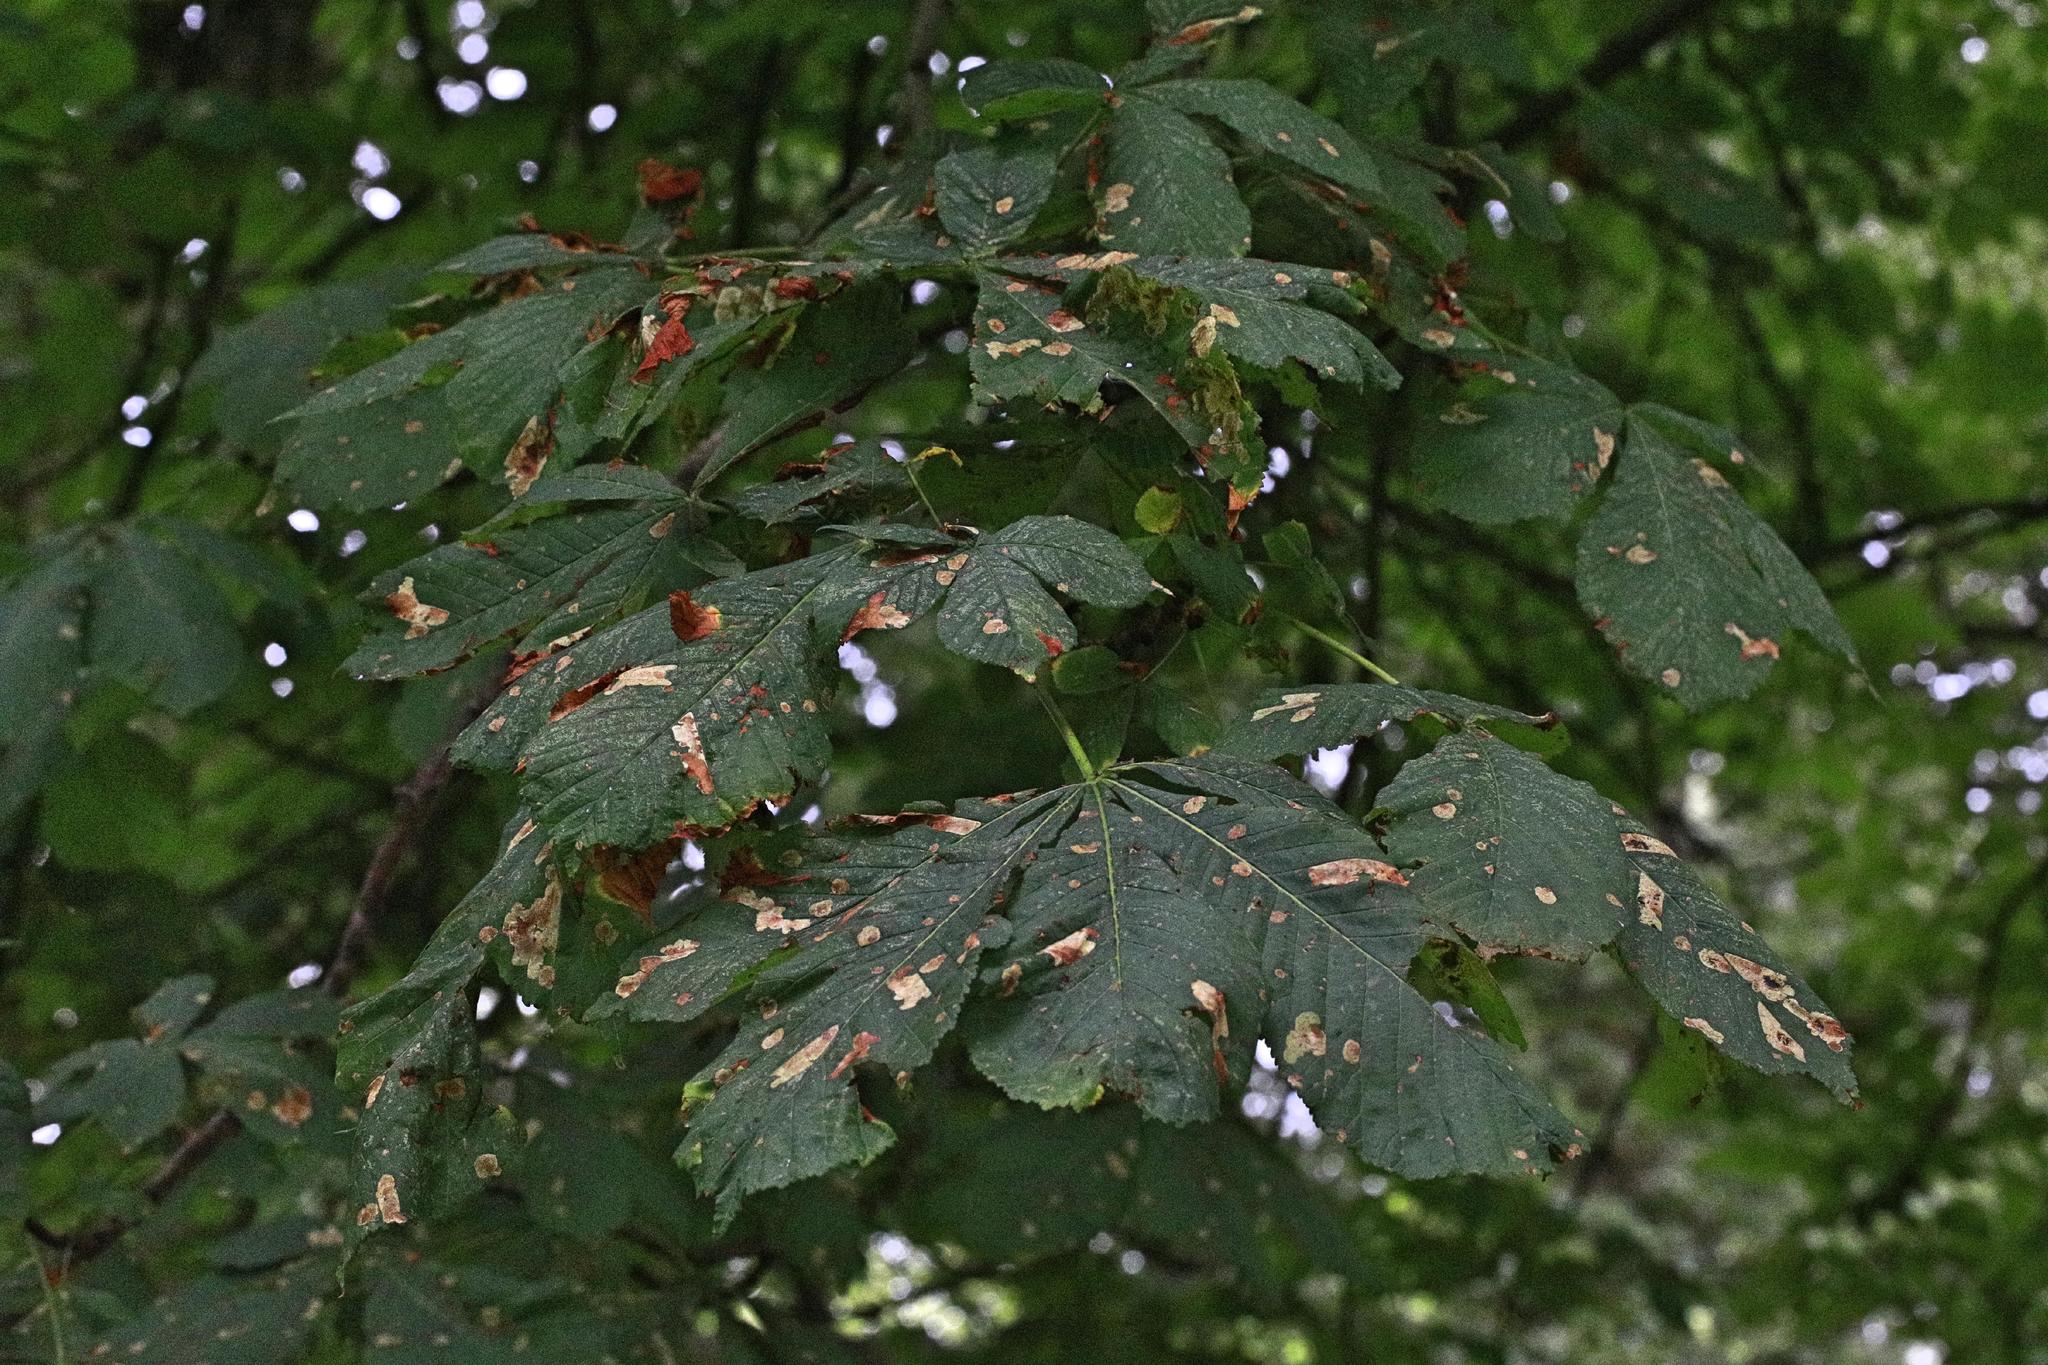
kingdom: Animalia
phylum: Arthropoda
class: Insecta
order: Lepidoptera
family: Gracillariidae
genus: Cameraria
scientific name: Cameraria ohridella
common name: Horse-chestnut leaf-miner
